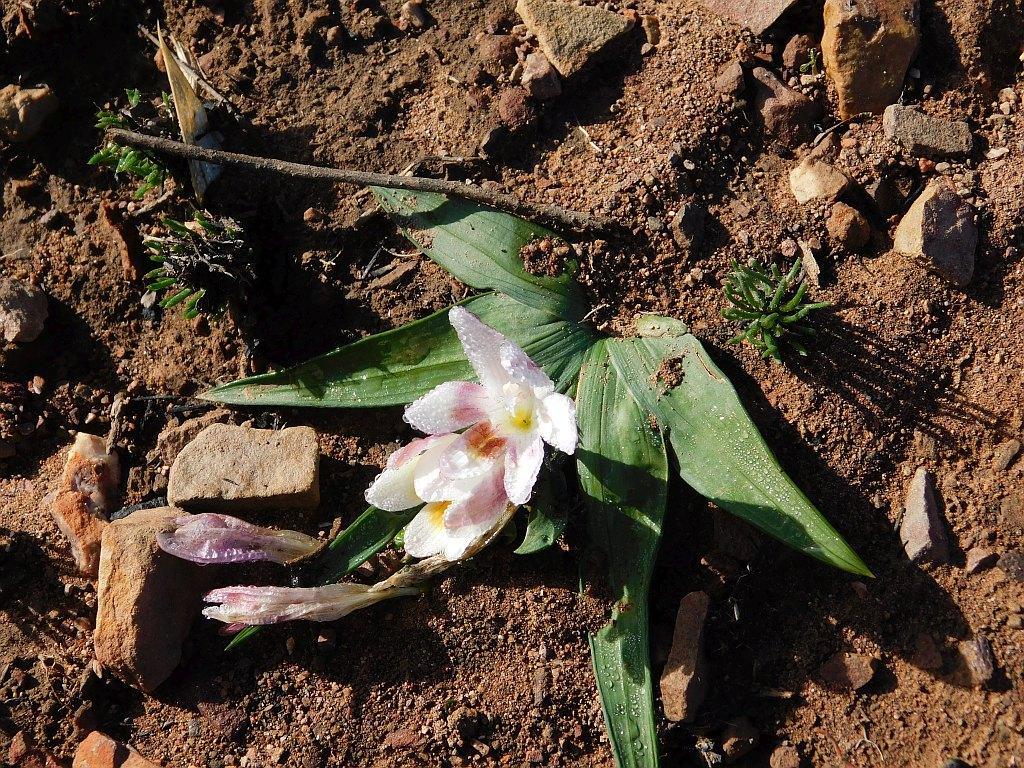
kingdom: Plantae
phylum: Tracheophyta
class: Liliopsida
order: Asparagales
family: Iridaceae
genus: Freesia
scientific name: Freesia caryophyllacea
